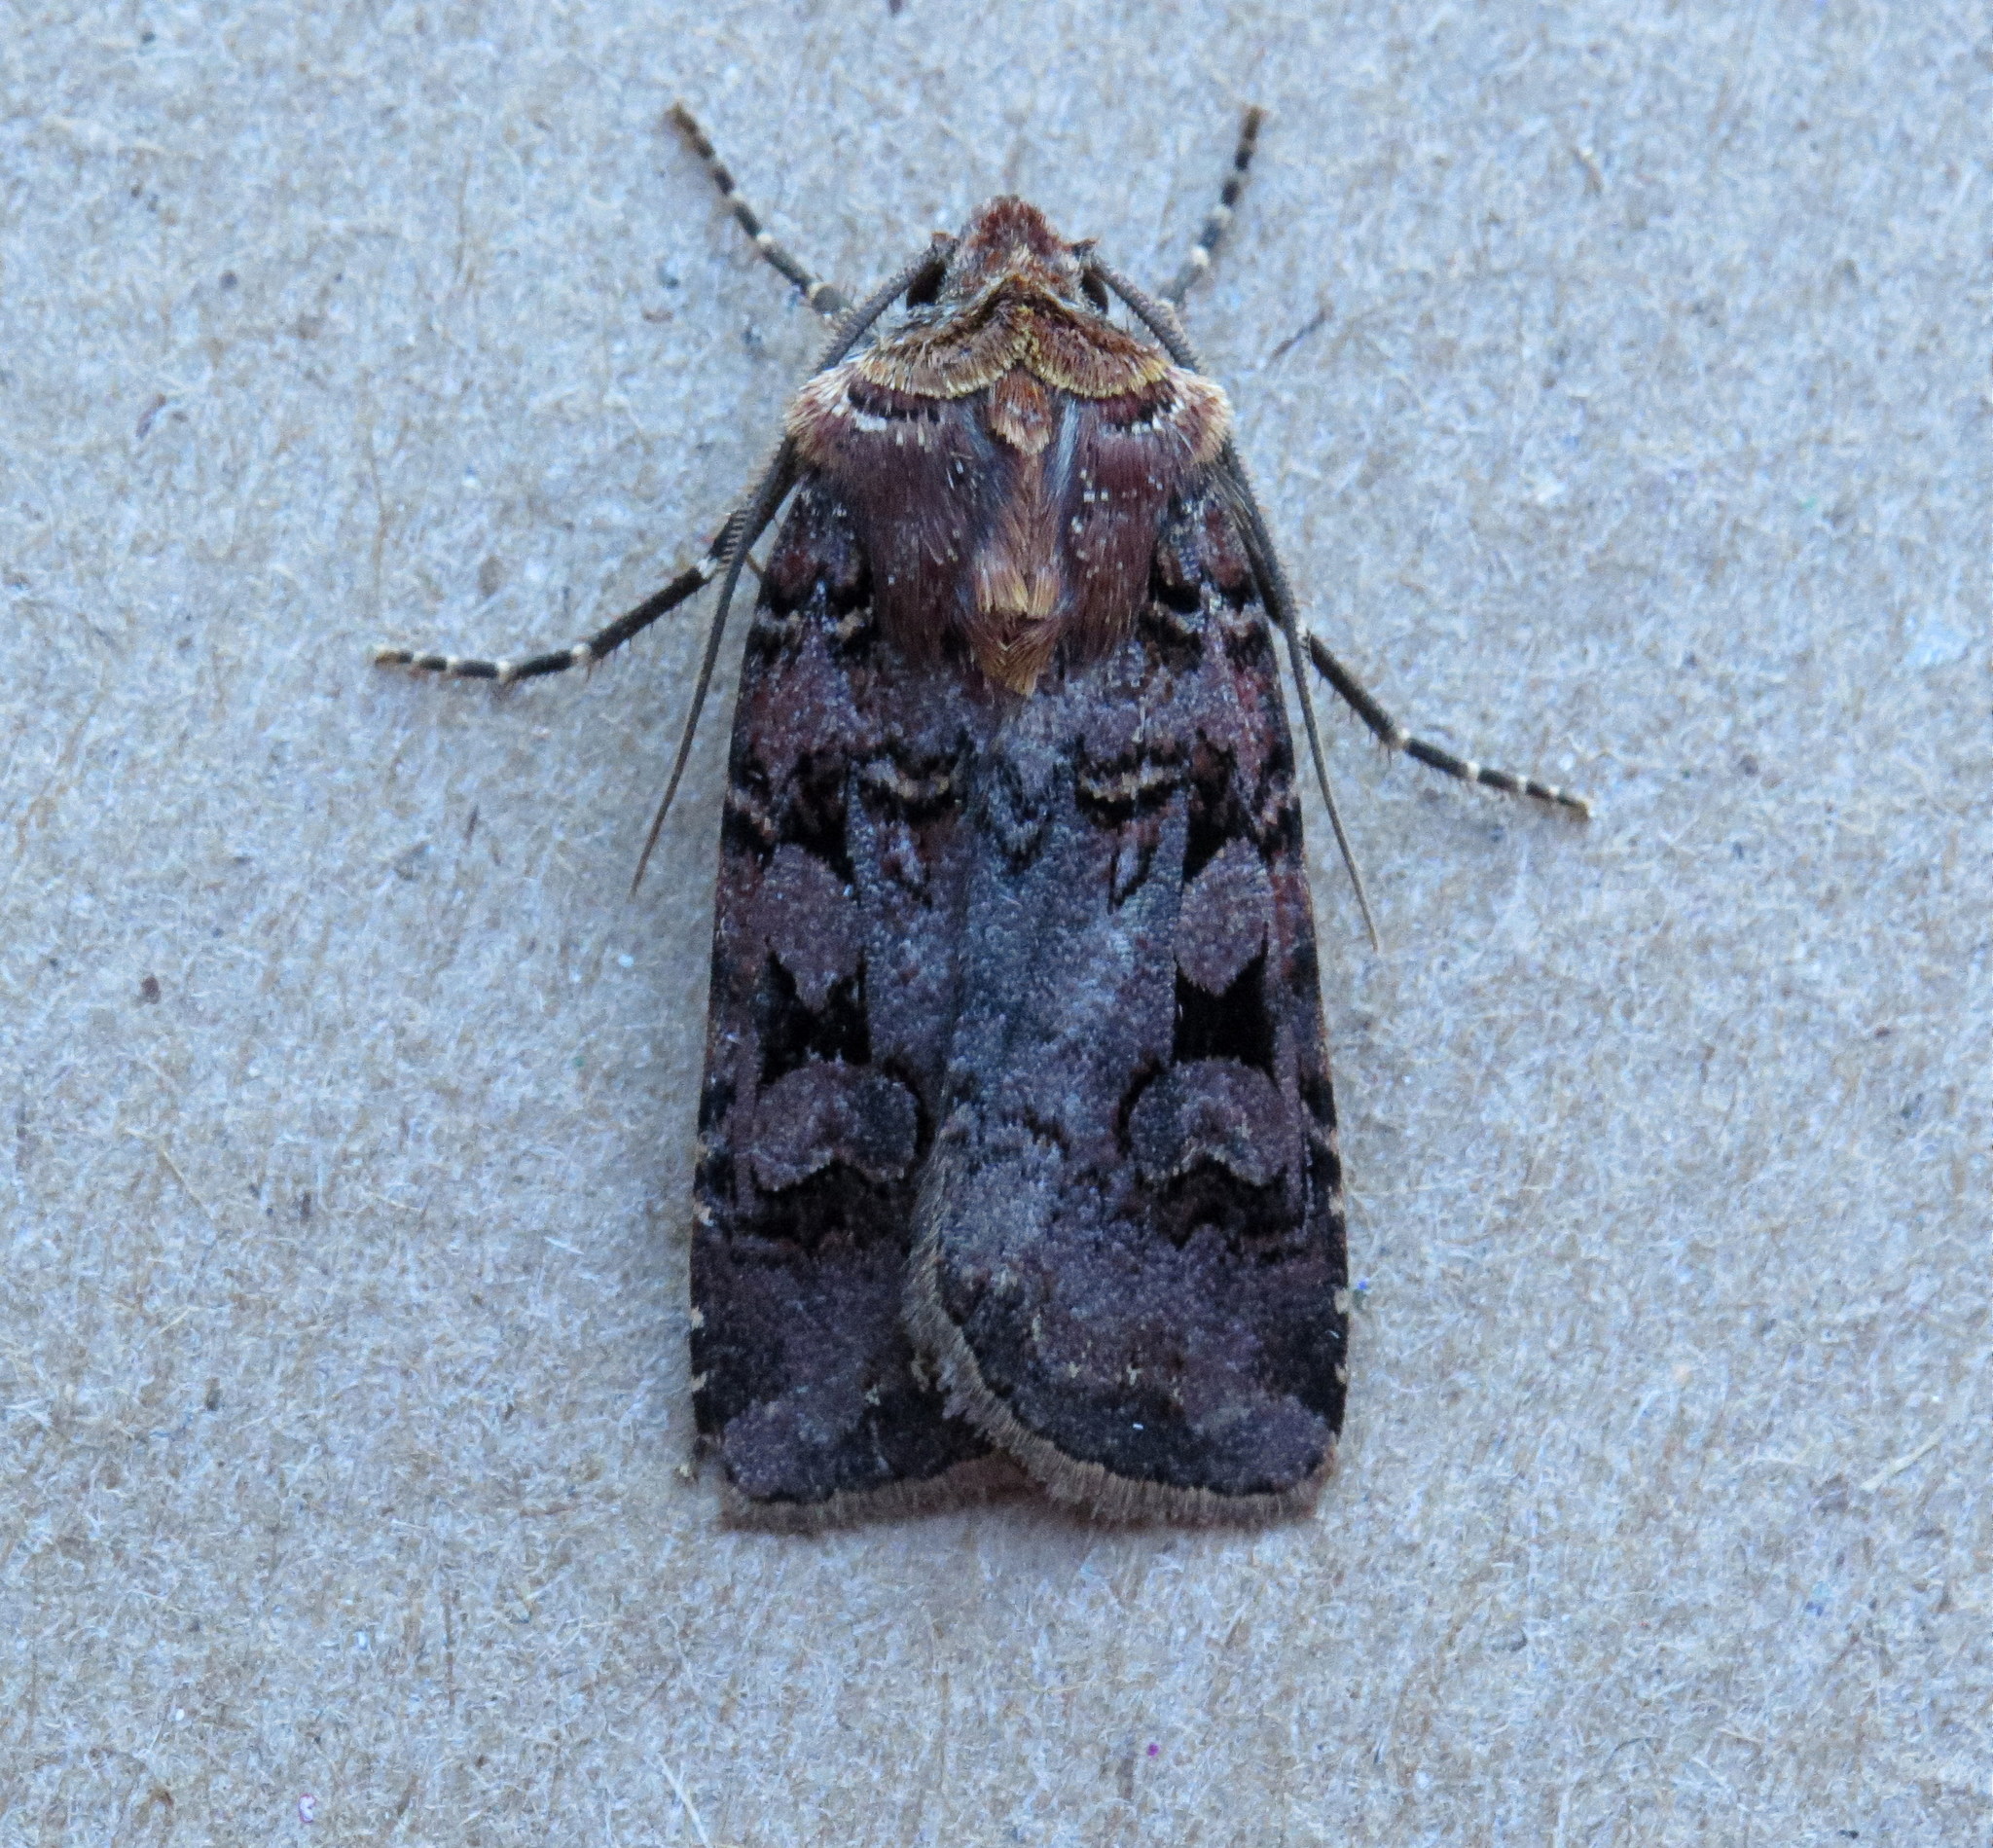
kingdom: Animalia
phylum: Arthropoda
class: Insecta
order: Lepidoptera
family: Noctuidae
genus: Euxoa
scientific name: Euxoa albipennis
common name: White-striped dart
